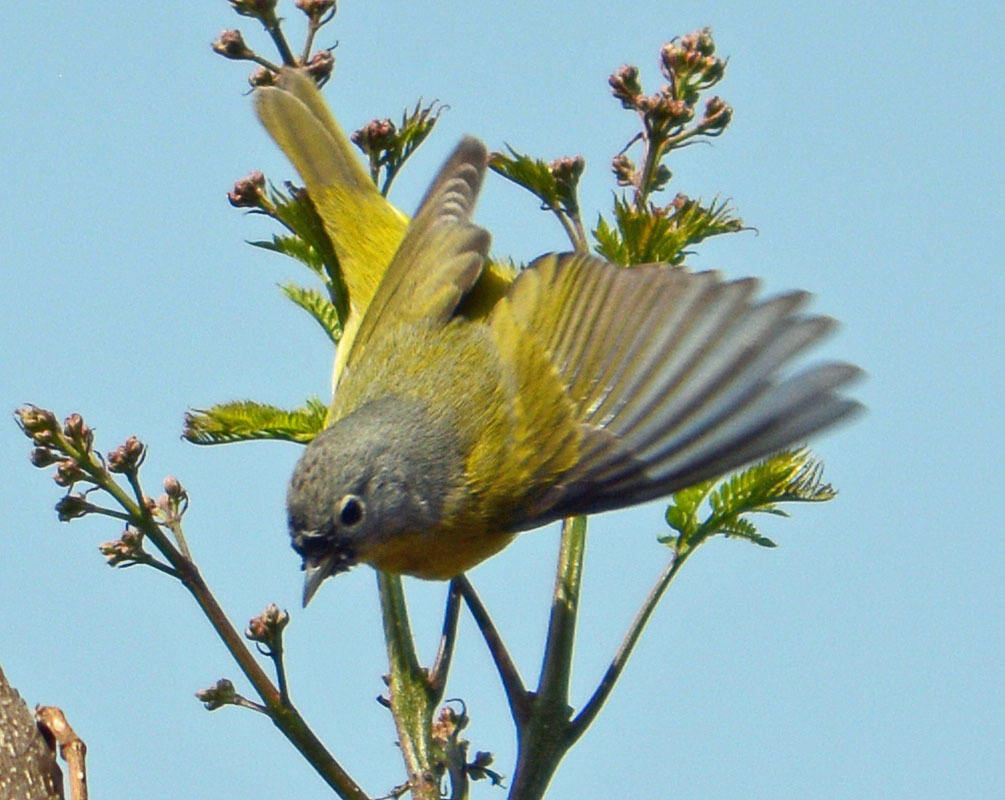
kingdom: Animalia
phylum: Chordata
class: Aves
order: Passeriformes
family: Parulidae
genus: Leiothlypis
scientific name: Leiothlypis ruficapilla
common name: Nashville warbler
